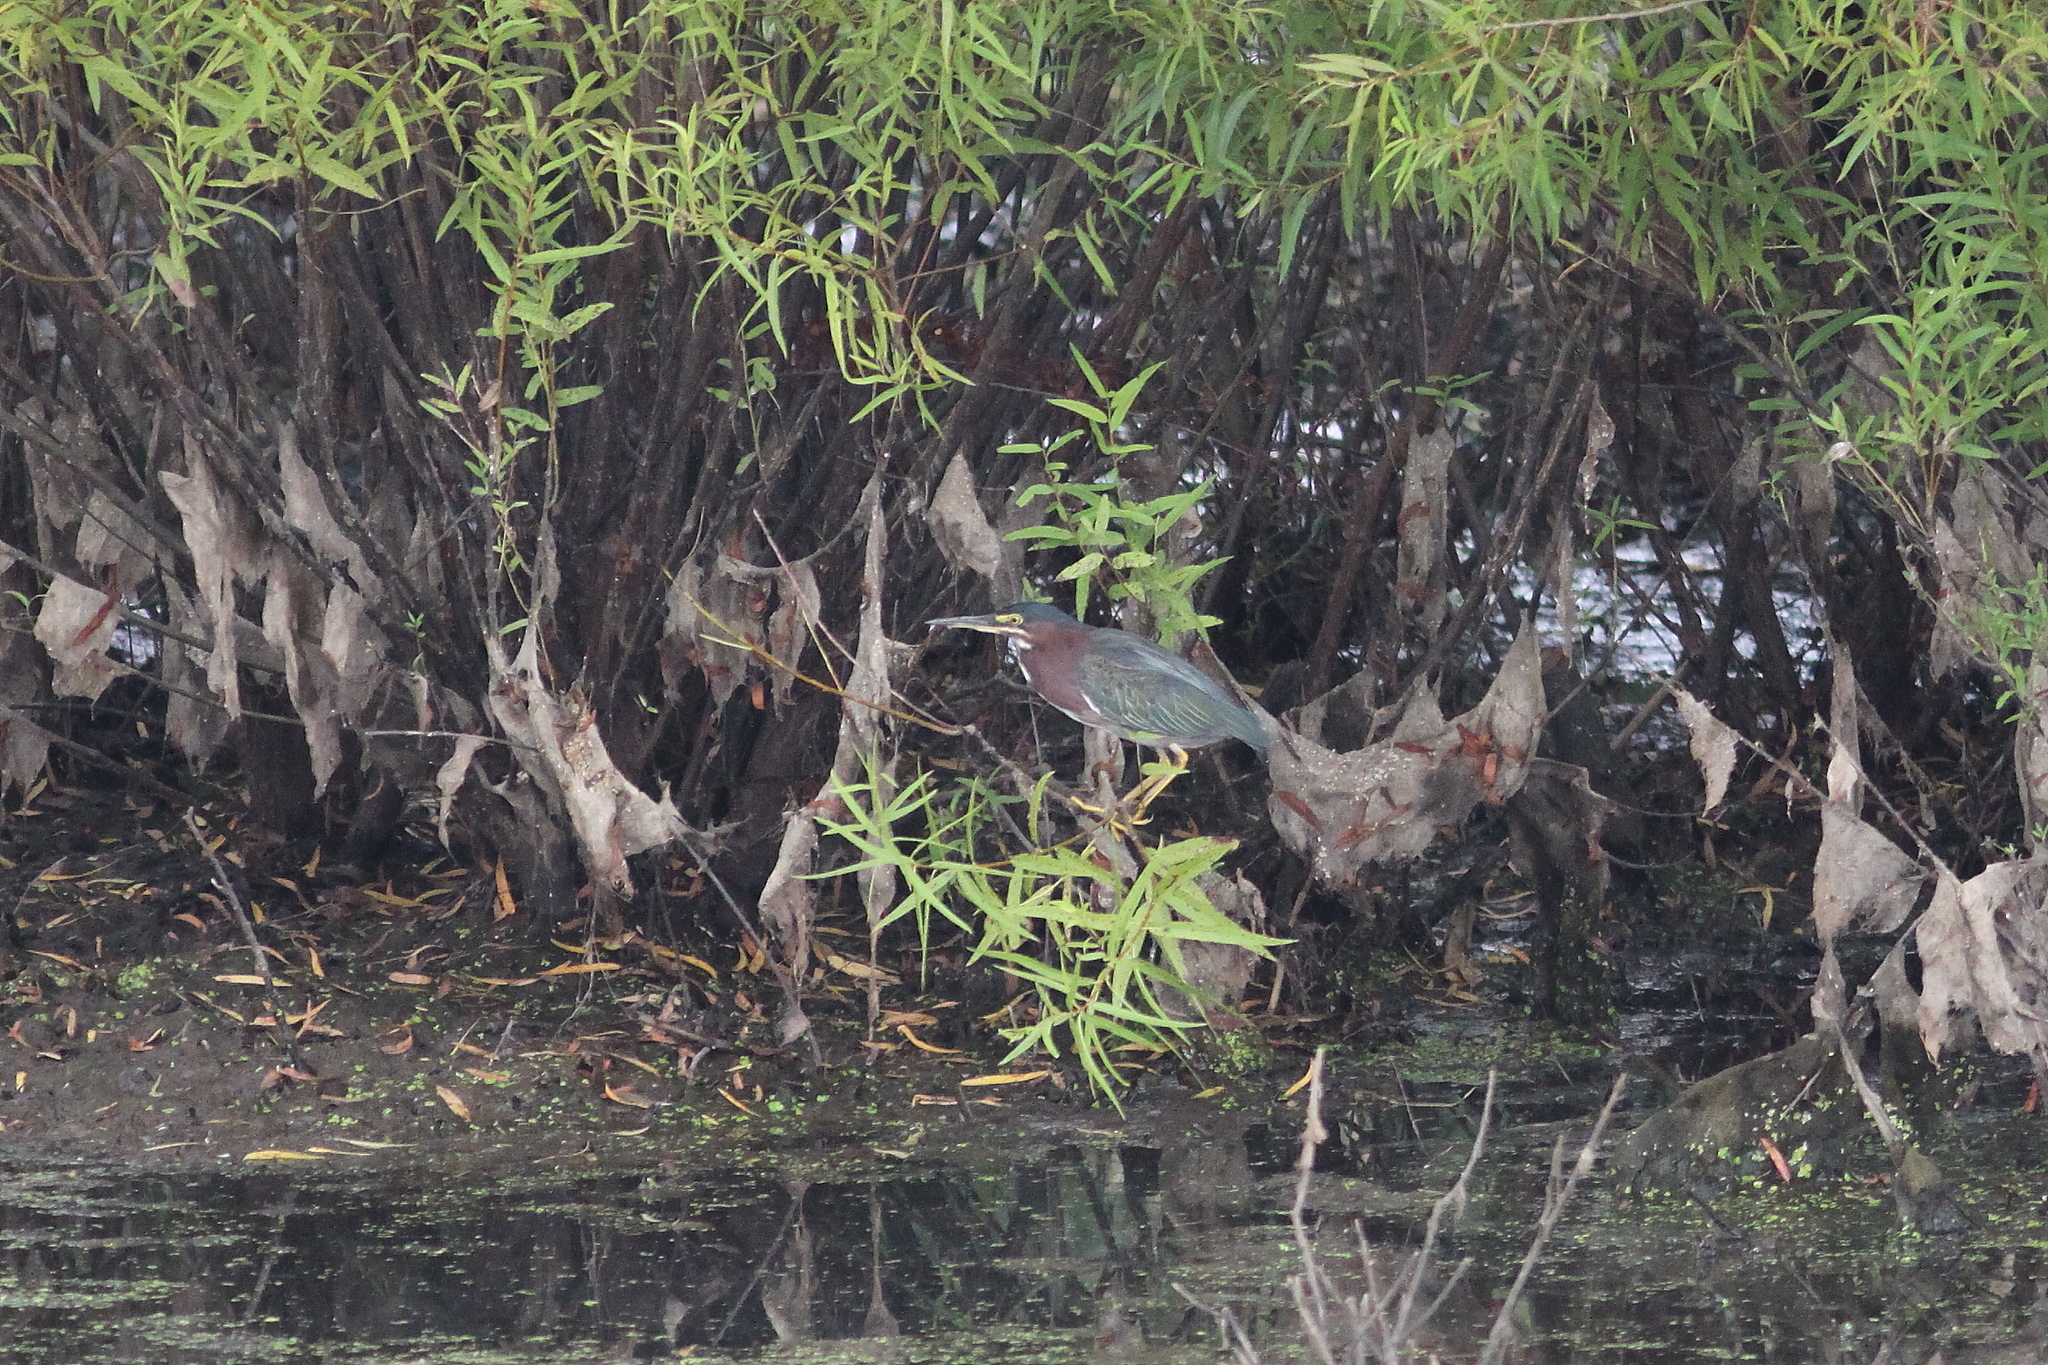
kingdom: Animalia
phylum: Chordata
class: Aves
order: Pelecaniformes
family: Ardeidae
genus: Butorides
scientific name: Butorides virescens
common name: Green heron
